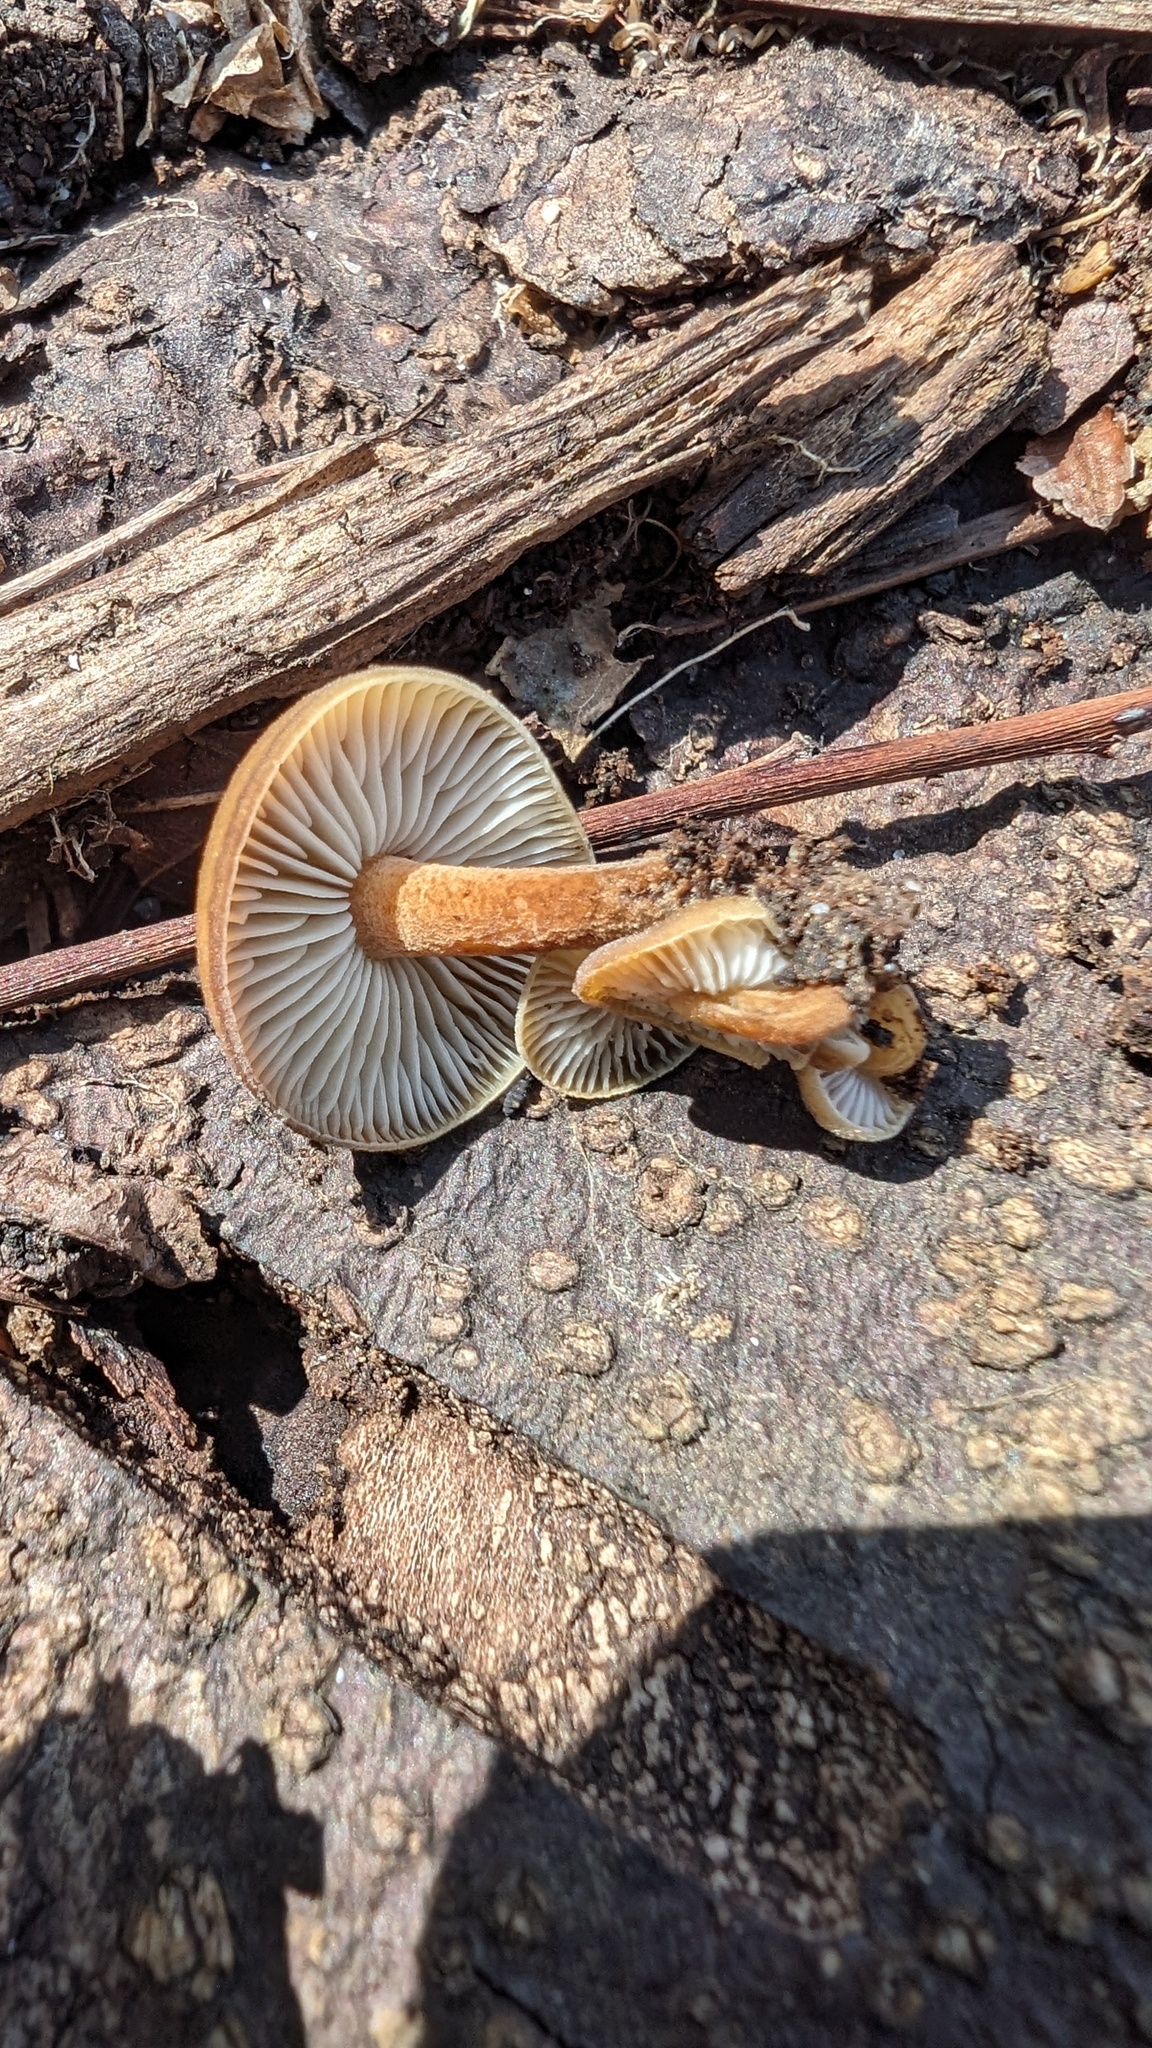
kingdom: Fungi
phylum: Basidiomycota
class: Agaricomycetes
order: Agaricales
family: Physalacriaceae
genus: Flammulina
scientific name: Flammulina velutipes
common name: Velvet shank
